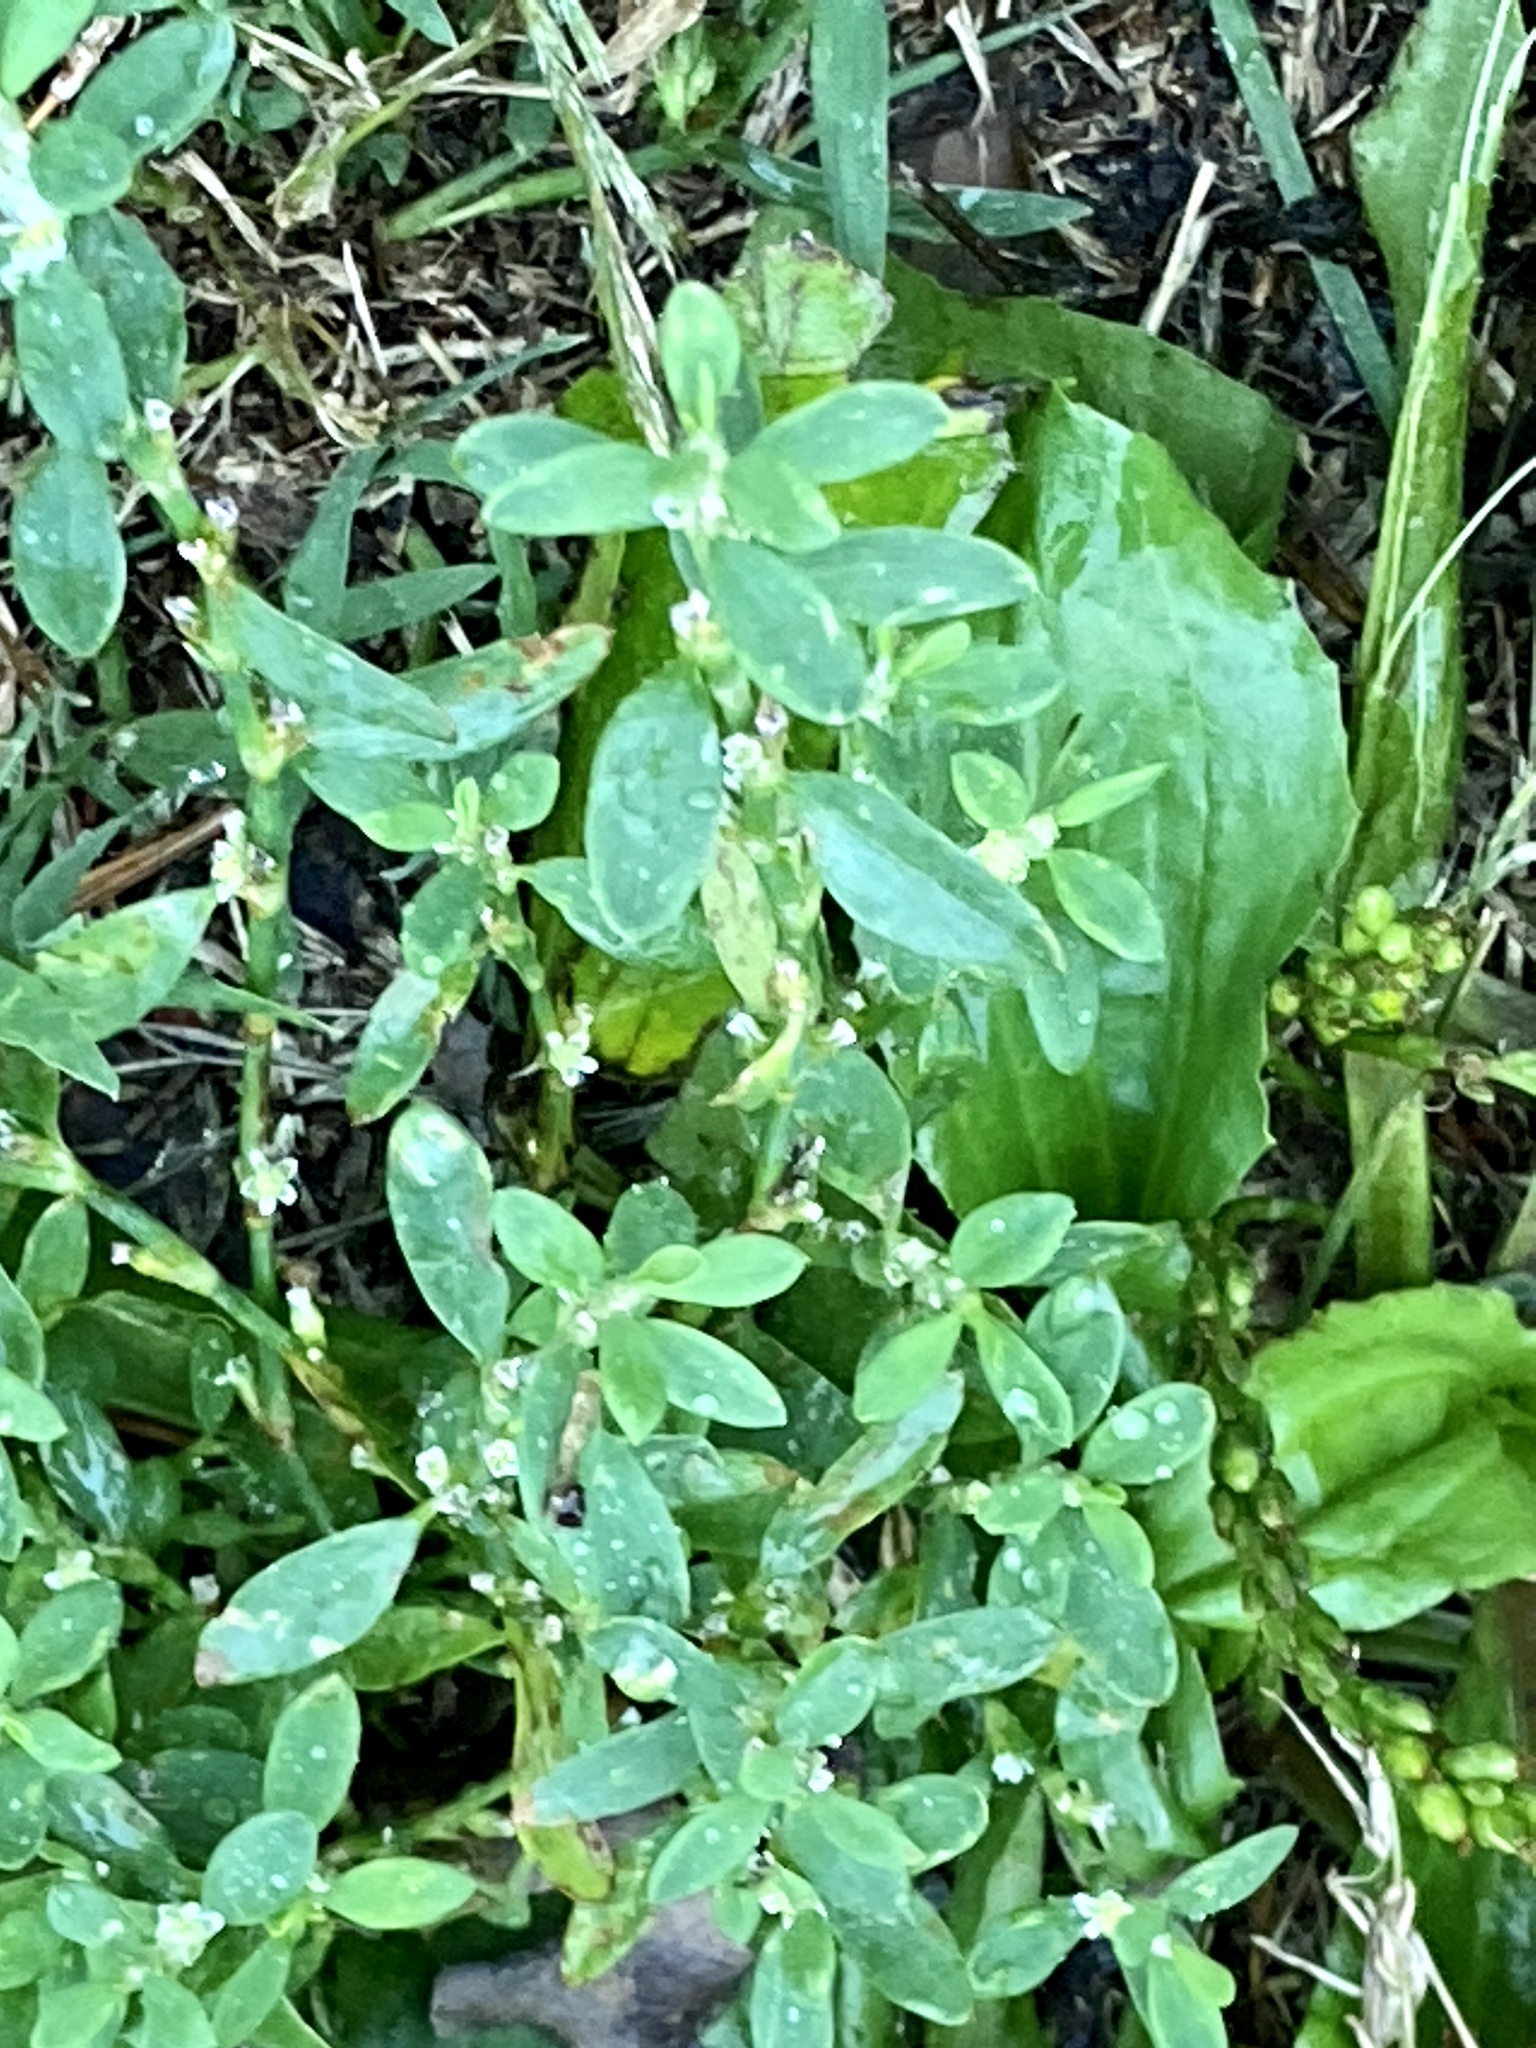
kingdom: Plantae
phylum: Tracheophyta
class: Magnoliopsida
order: Caryophyllales
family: Polygonaceae
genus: Polygonum
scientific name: Polygonum aviculare
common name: Prostrate knotweed
